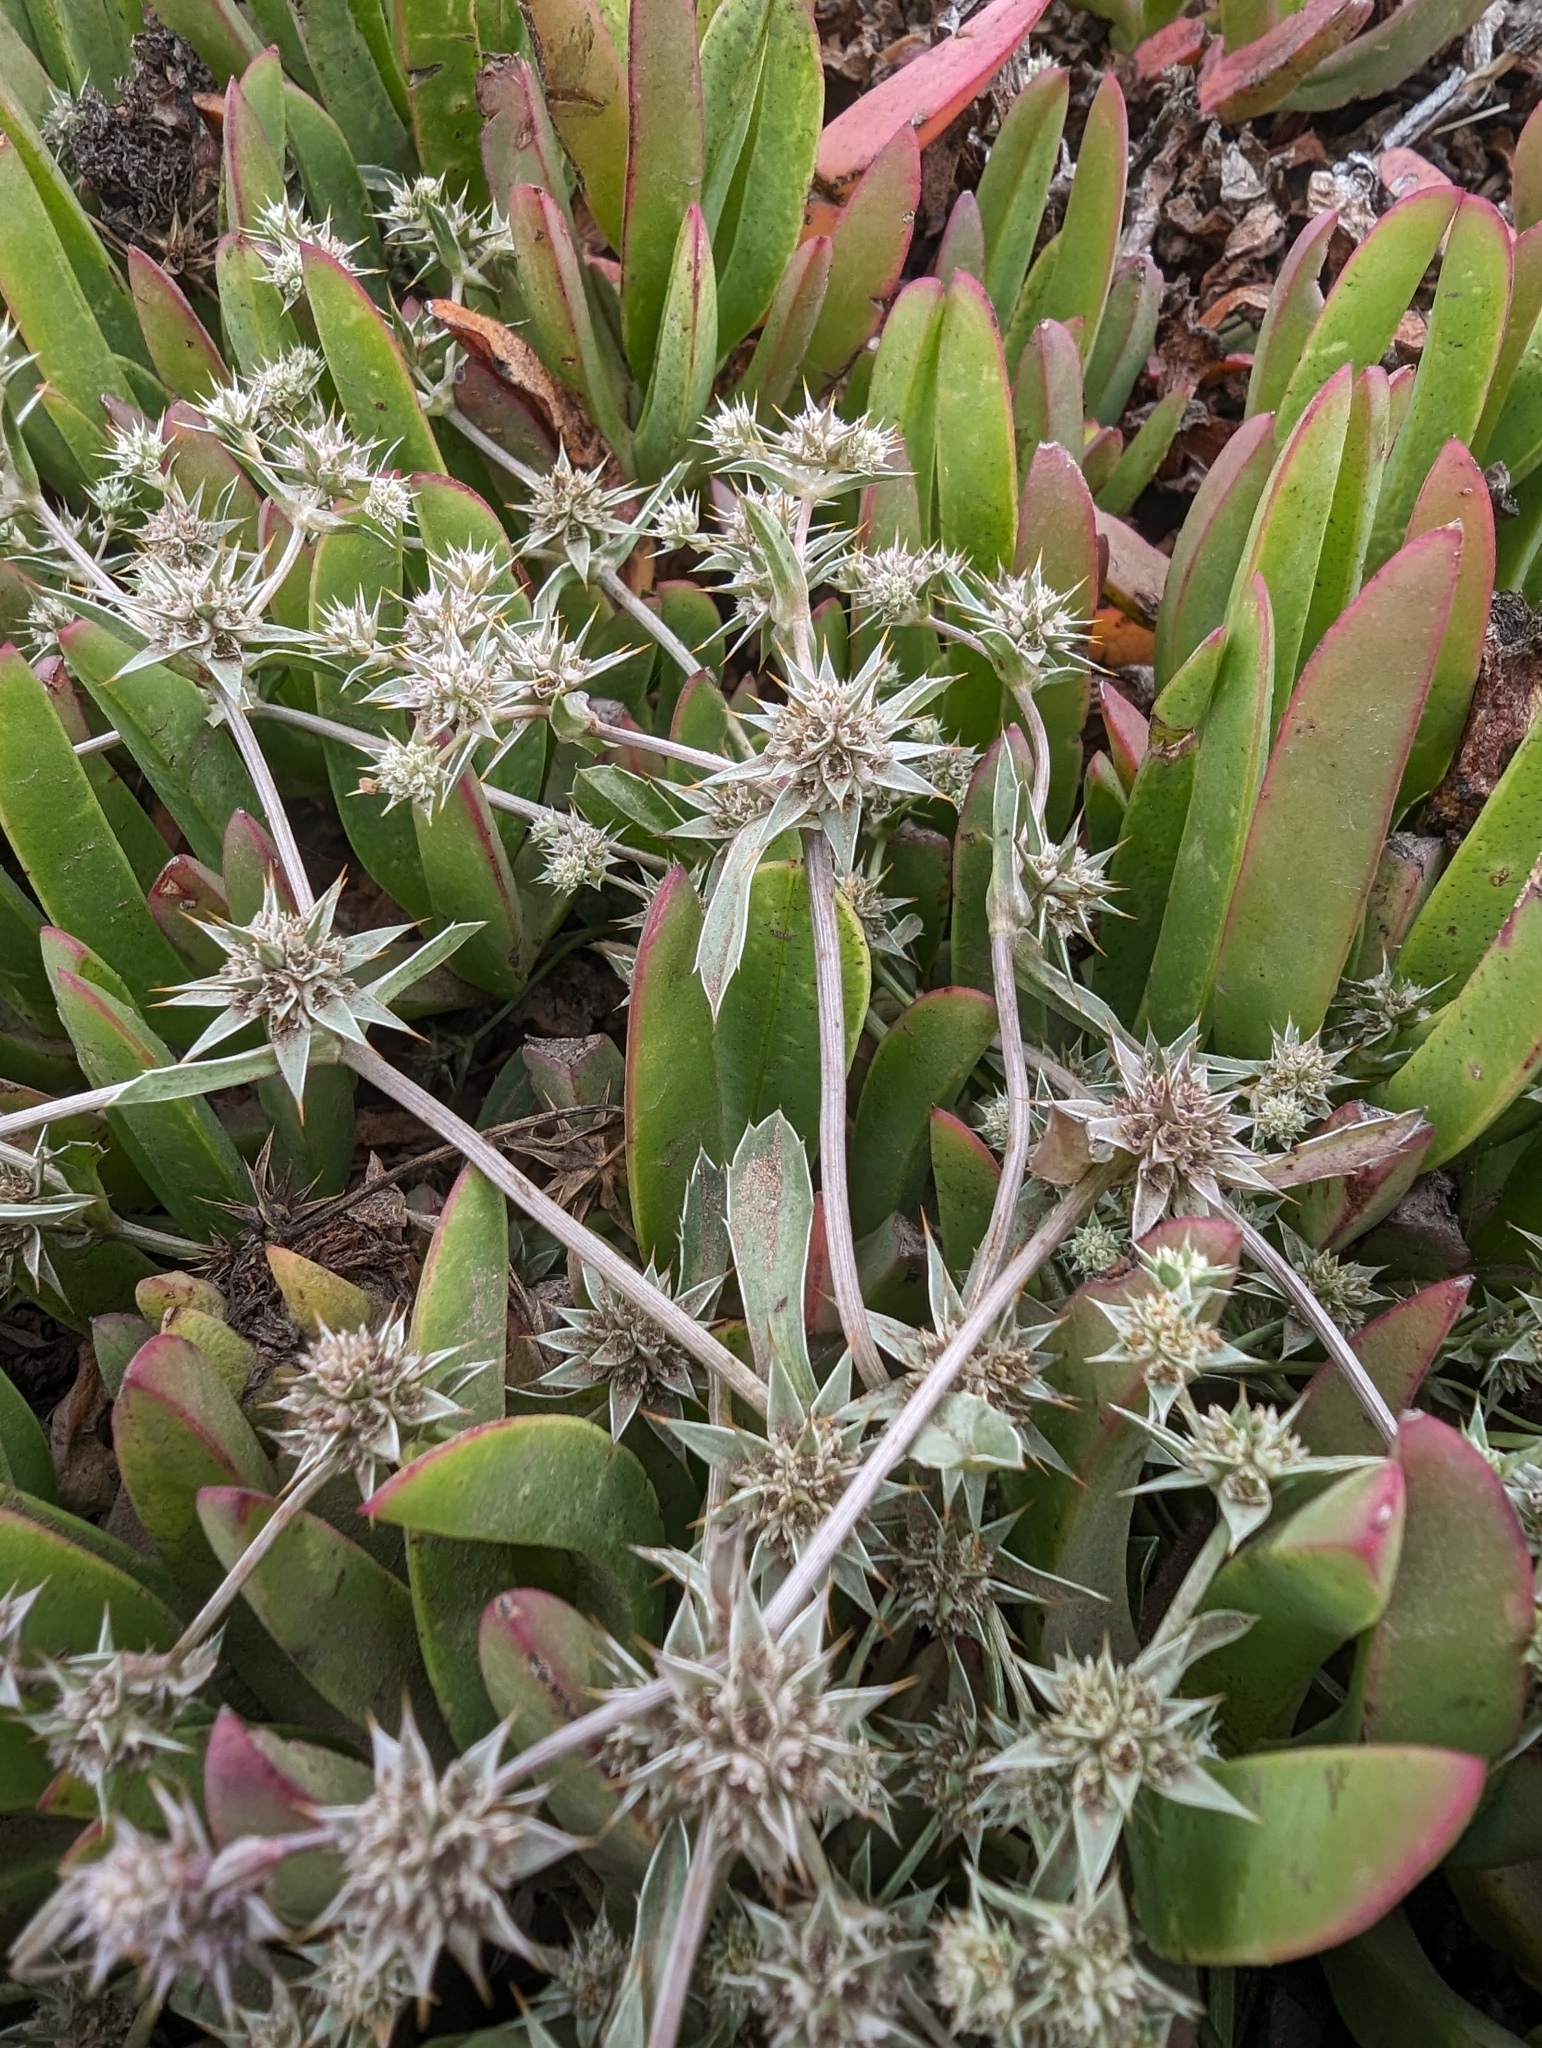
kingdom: Plantae
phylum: Tracheophyta
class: Magnoliopsida
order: Apiales
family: Apiaceae
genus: Eryngium
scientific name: Eryngium armatum
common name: Coyote thistle
